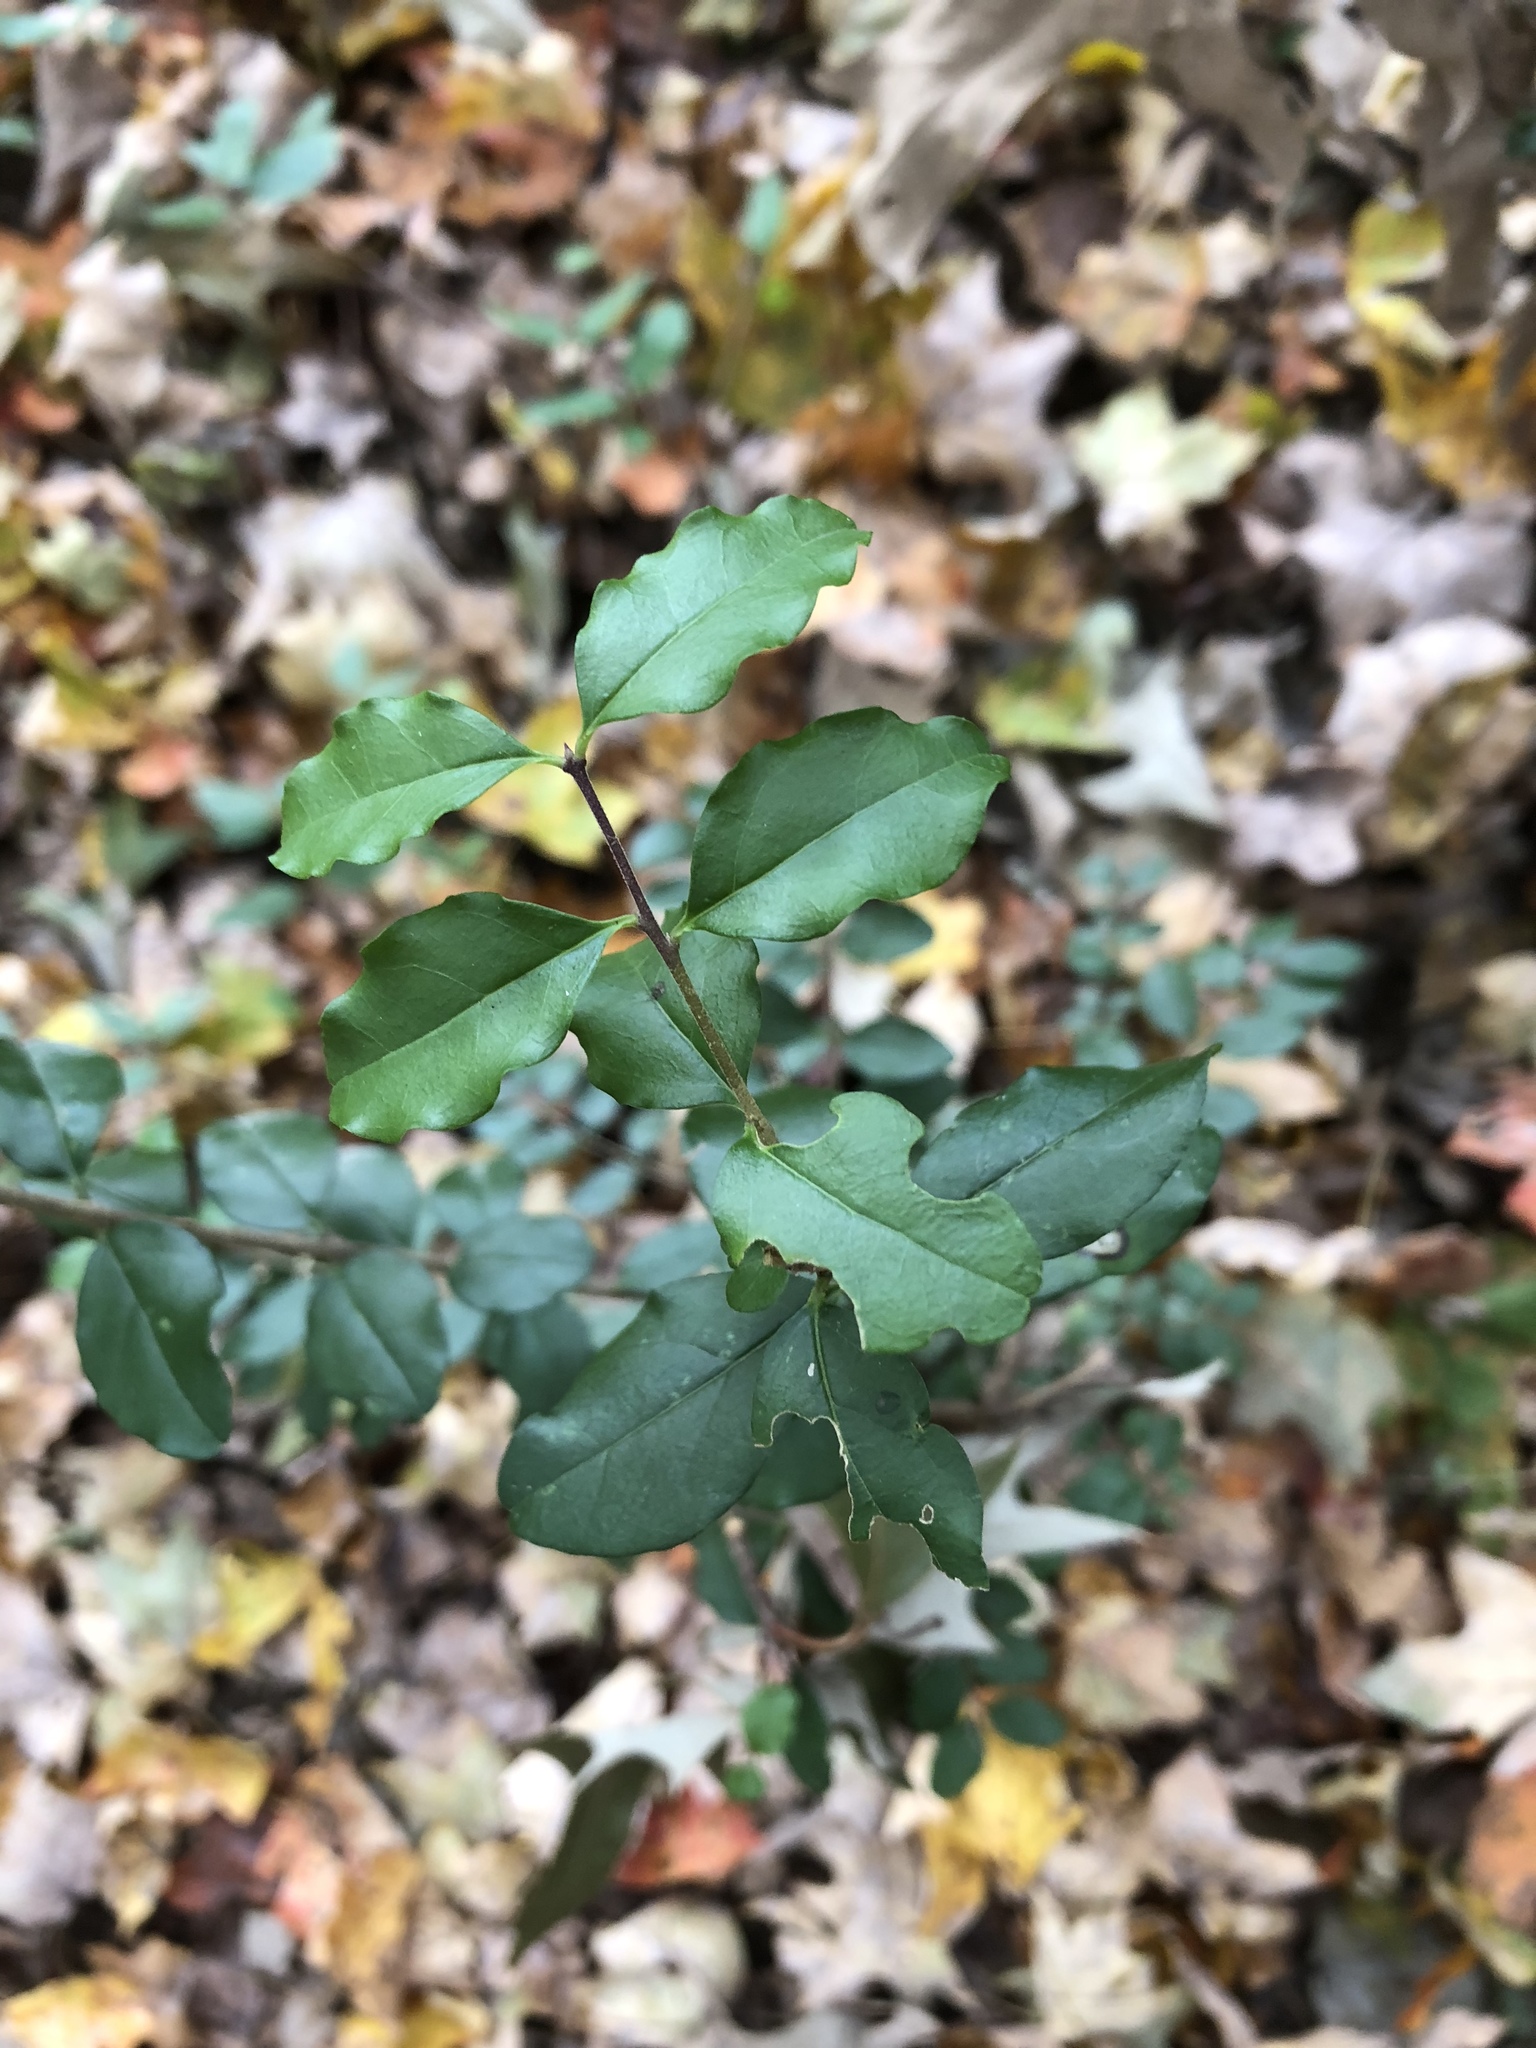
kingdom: Plantae
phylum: Tracheophyta
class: Magnoliopsida
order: Lamiales
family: Oleaceae
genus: Ligustrum
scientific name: Ligustrum sinense
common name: Chinese privet
